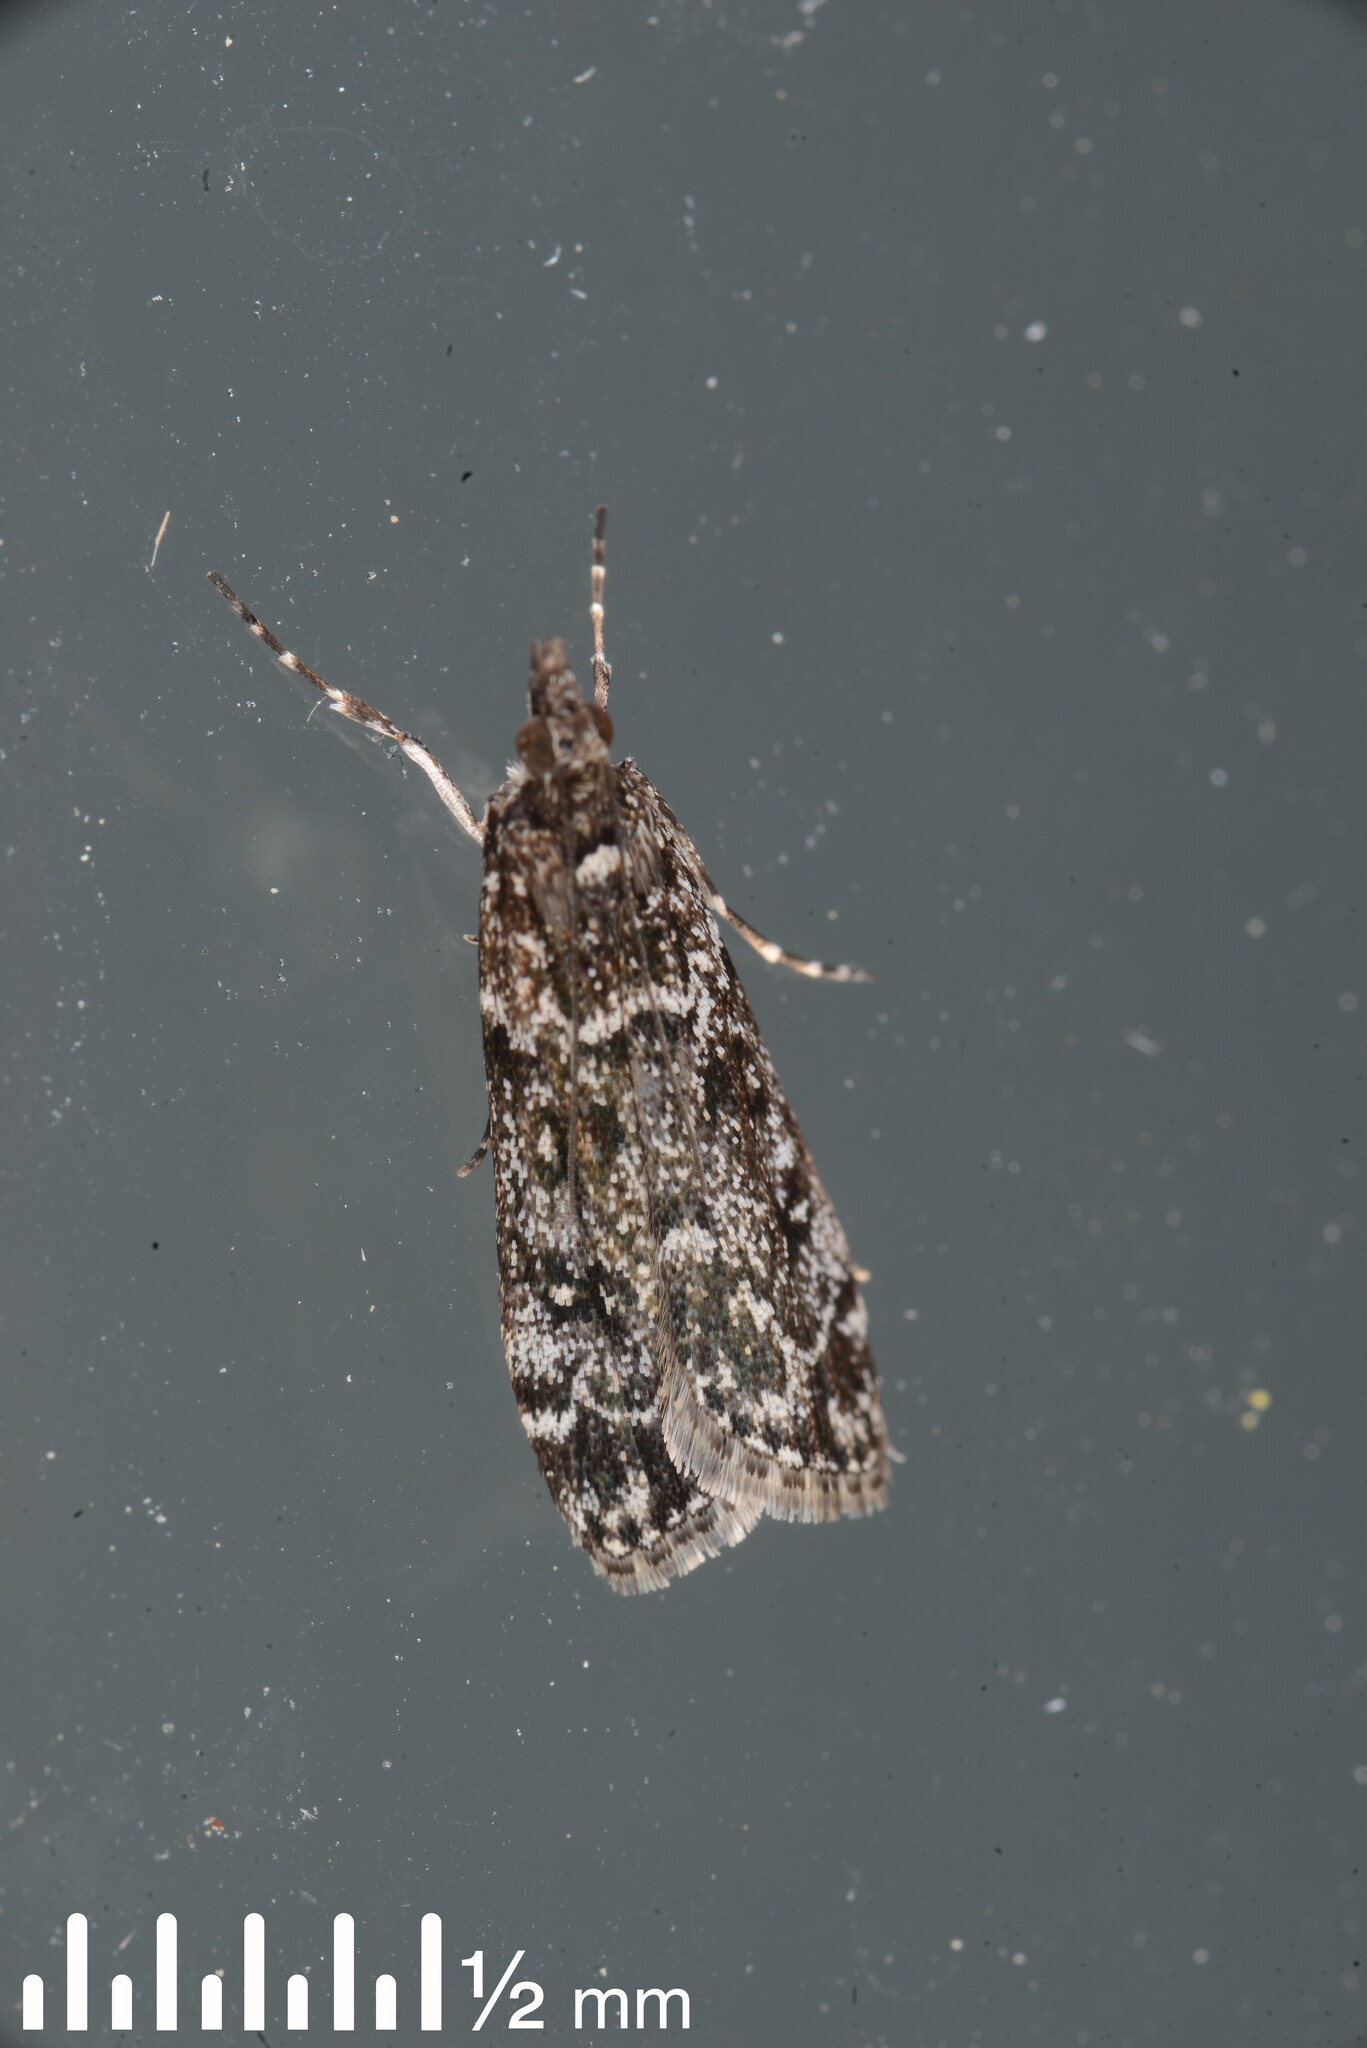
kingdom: Animalia
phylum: Arthropoda
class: Insecta
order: Lepidoptera
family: Crambidae
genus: Eudonia
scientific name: Eudonia philerga
